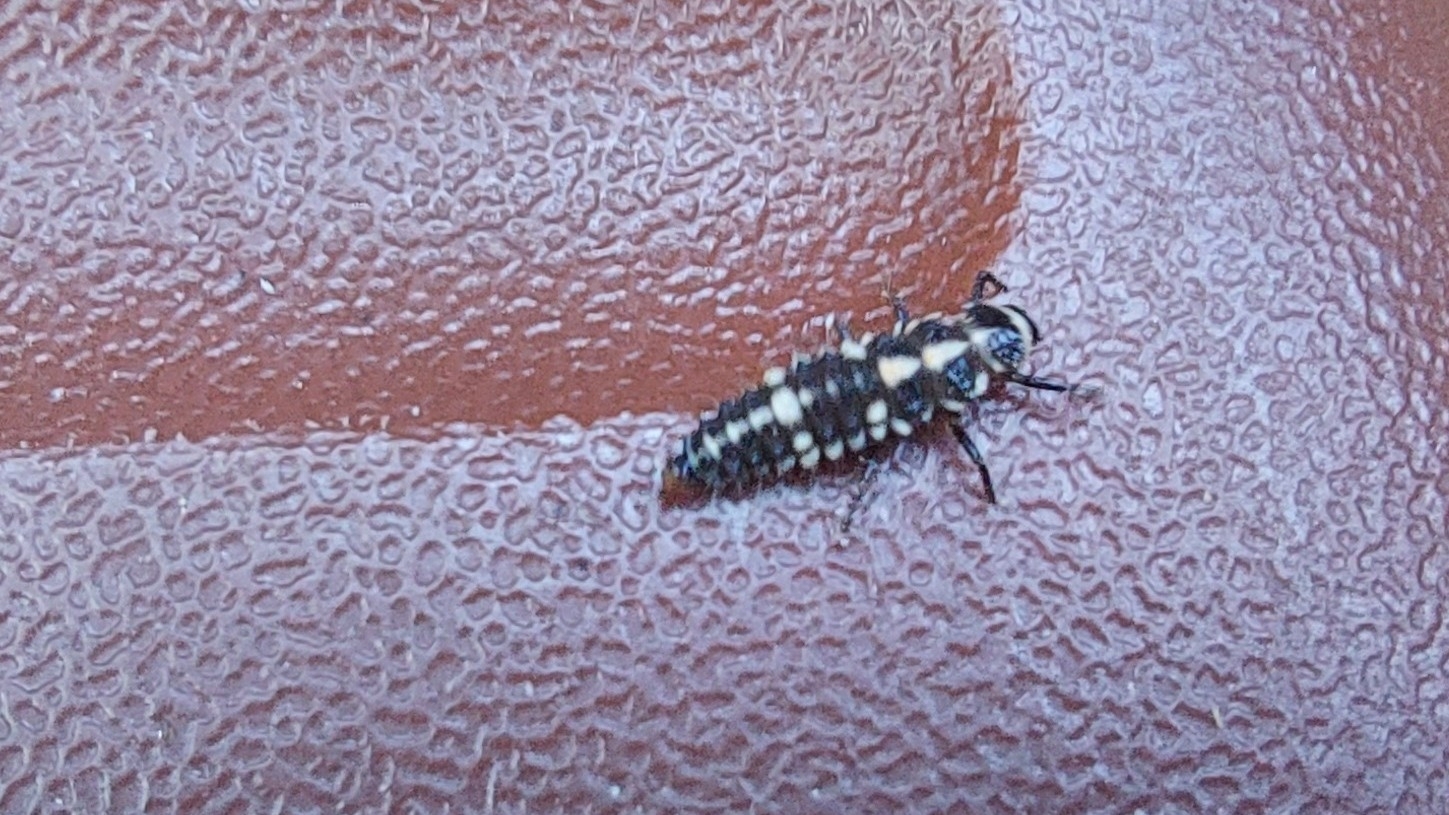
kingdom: Animalia
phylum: Arthropoda
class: Insecta
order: Coleoptera
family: Coccinellidae
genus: Oenopia
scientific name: Oenopia conglobata
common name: Ladybird beetle
